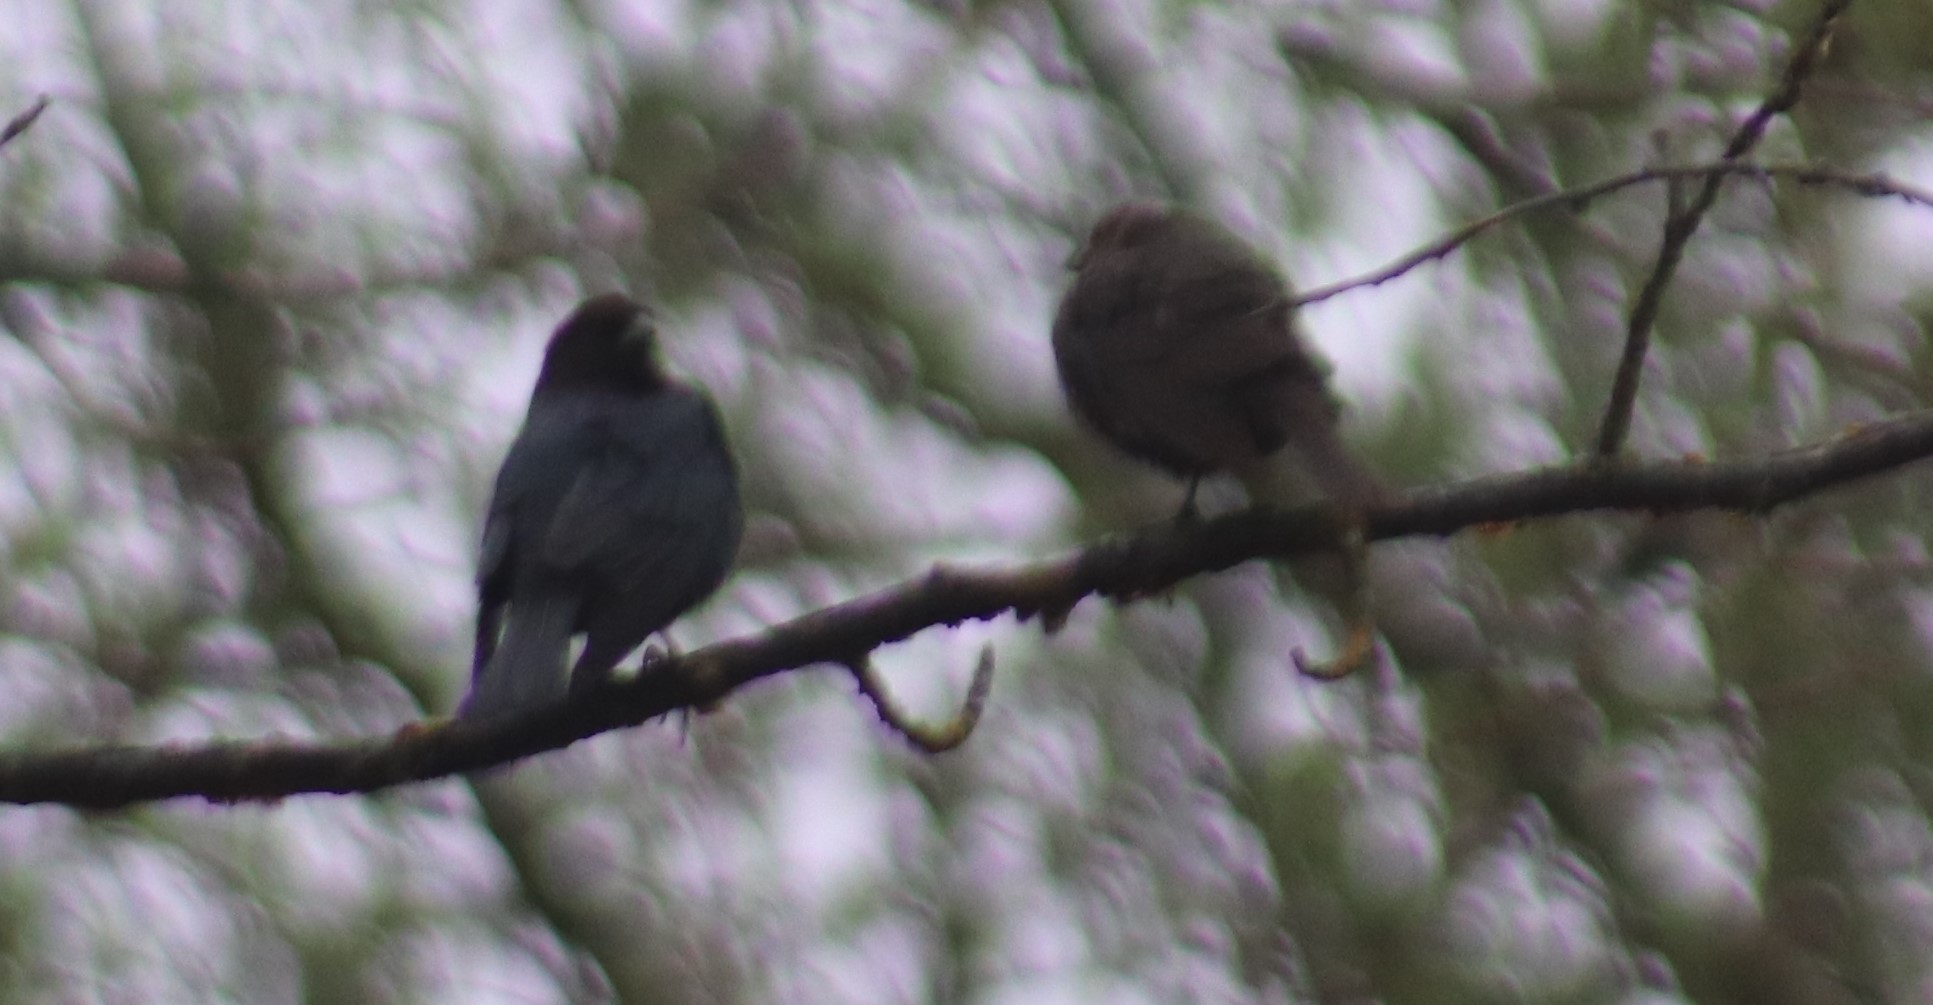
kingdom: Animalia
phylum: Chordata
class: Aves
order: Passeriformes
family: Icteridae
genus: Molothrus
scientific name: Molothrus ater
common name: Brown-headed cowbird
